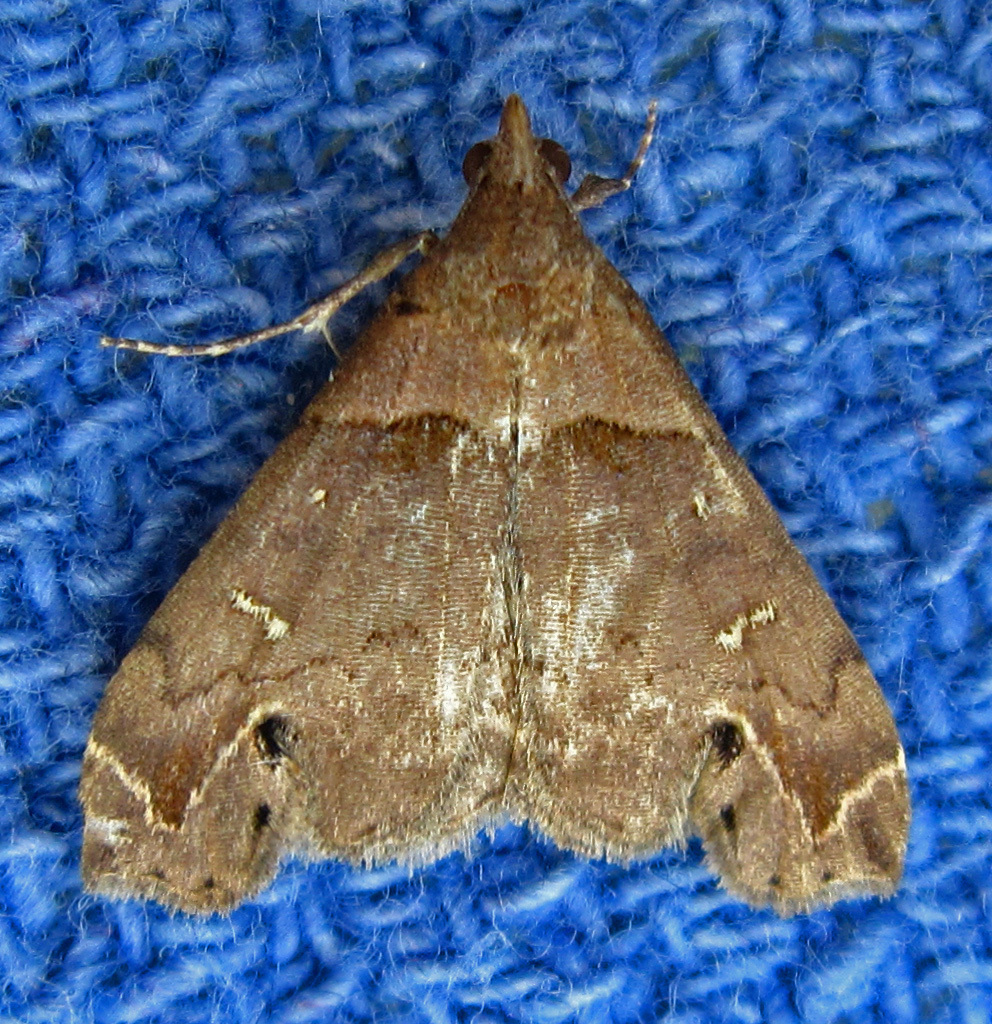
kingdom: Animalia
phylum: Arthropoda
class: Insecta
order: Lepidoptera
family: Erebidae
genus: Lascoria
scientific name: Lascoria ambigualis
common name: Ambiguous moth
